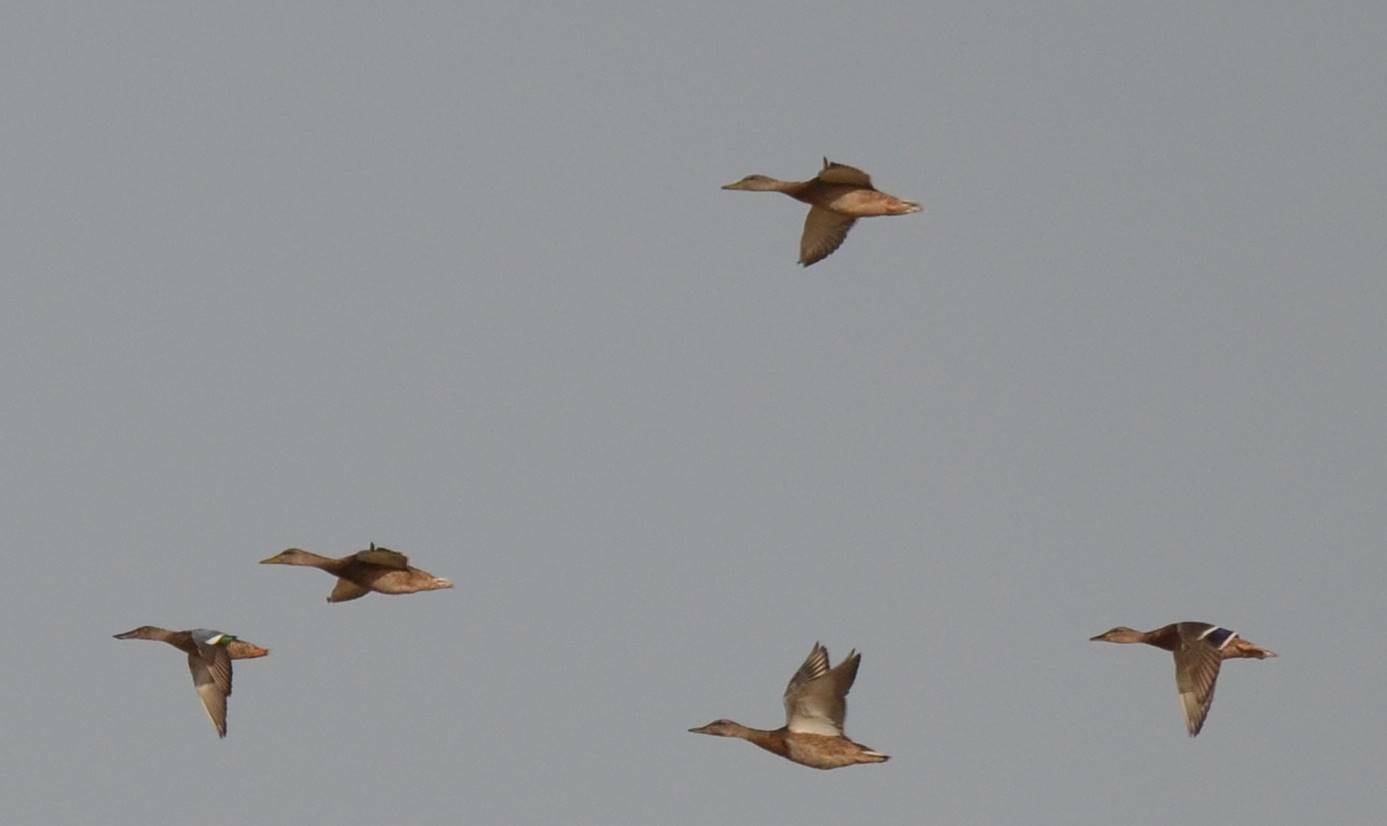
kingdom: Animalia
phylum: Chordata
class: Aves
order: Anseriformes
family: Anatidae
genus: Anas
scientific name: Anas platyrhynchos
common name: Mallard
